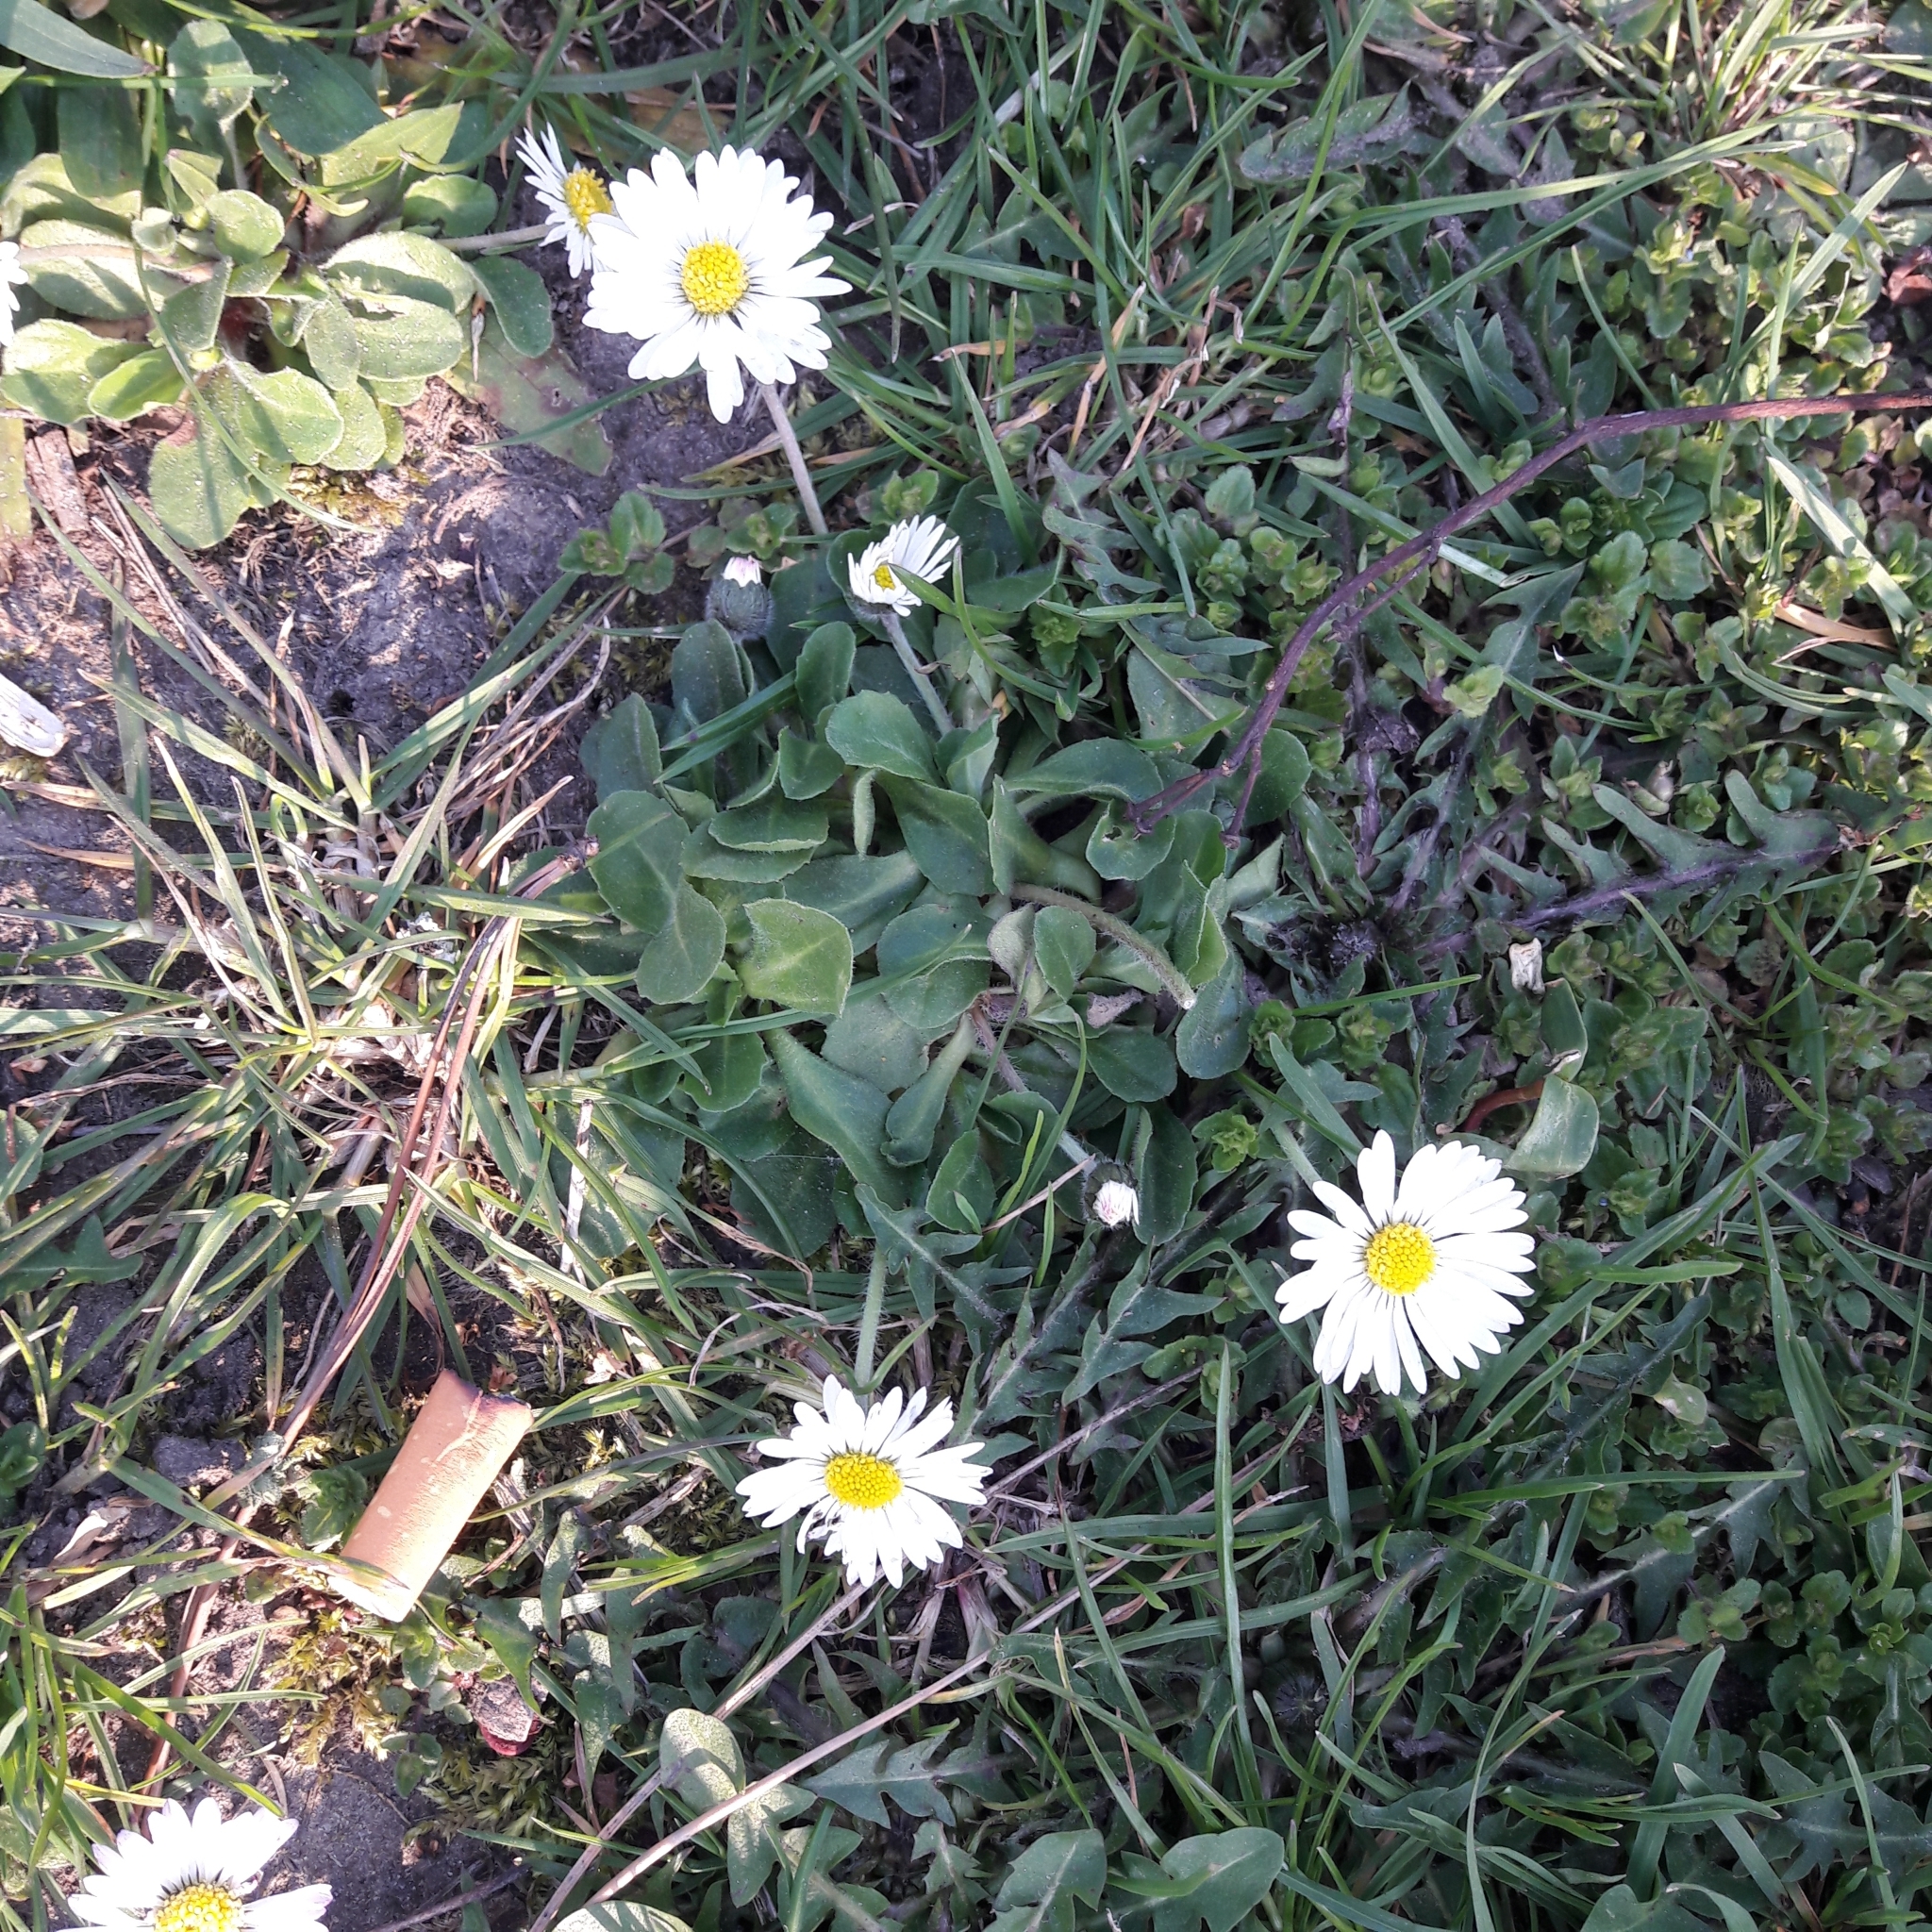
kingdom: Plantae
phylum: Tracheophyta
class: Magnoliopsida
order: Asterales
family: Asteraceae
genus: Bellis
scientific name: Bellis perennis
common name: Lawndaisy
